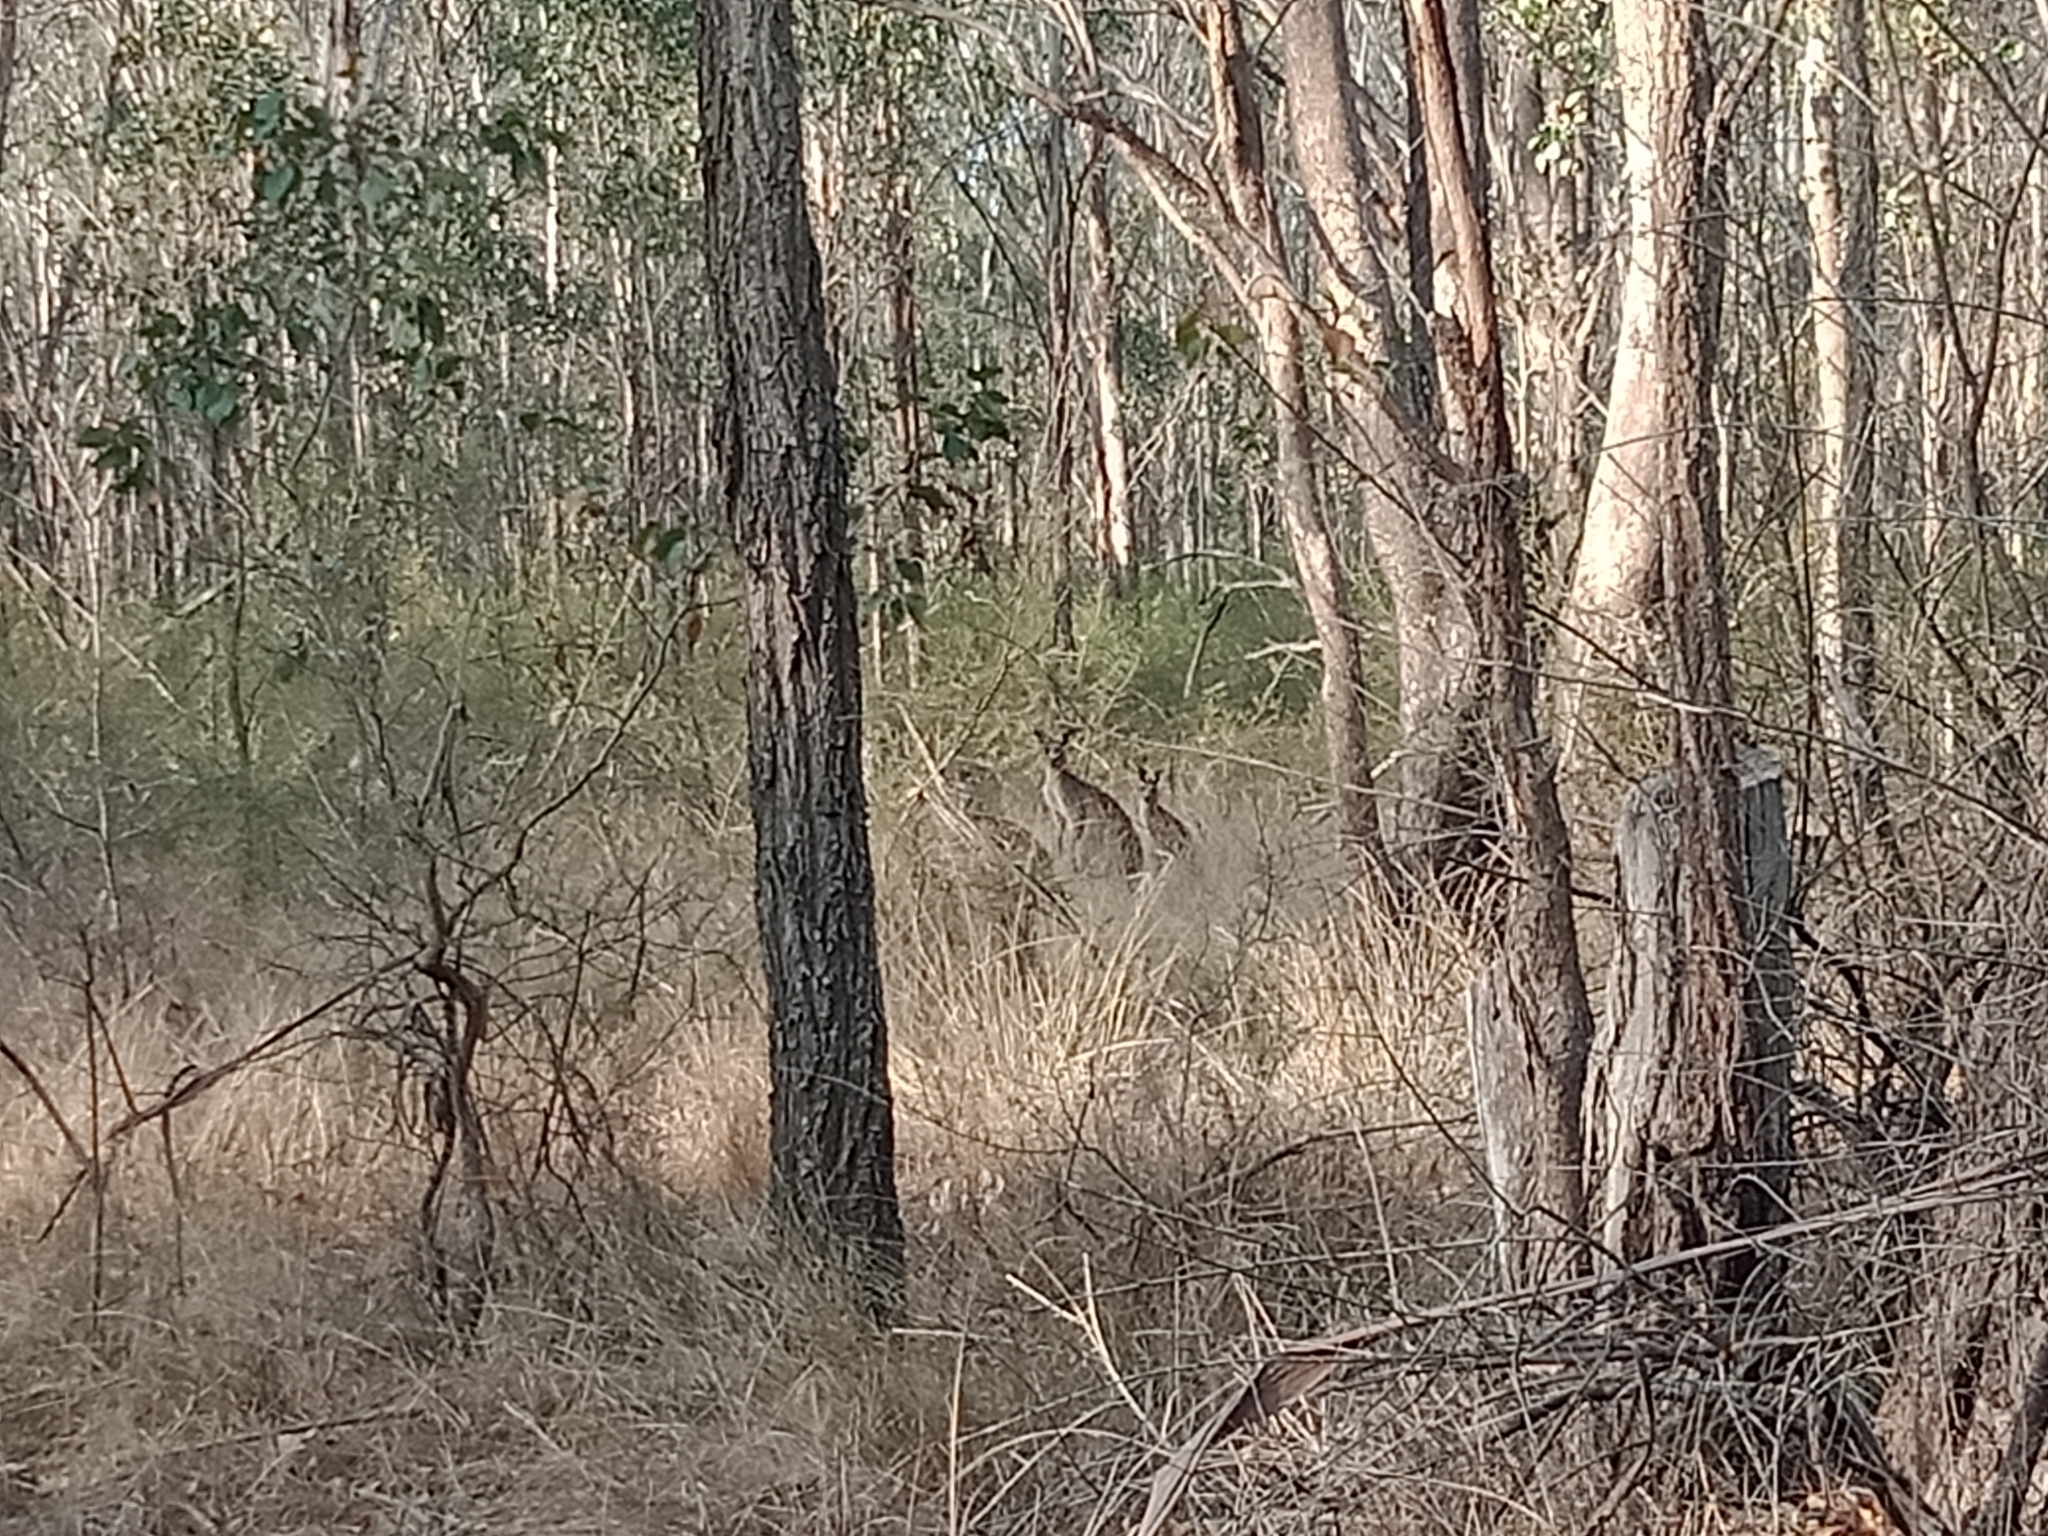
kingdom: Animalia
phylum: Chordata
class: Mammalia
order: Diprotodontia
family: Macropodidae
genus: Macropus
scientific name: Macropus giganteus
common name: Eastern grey kangaroo
